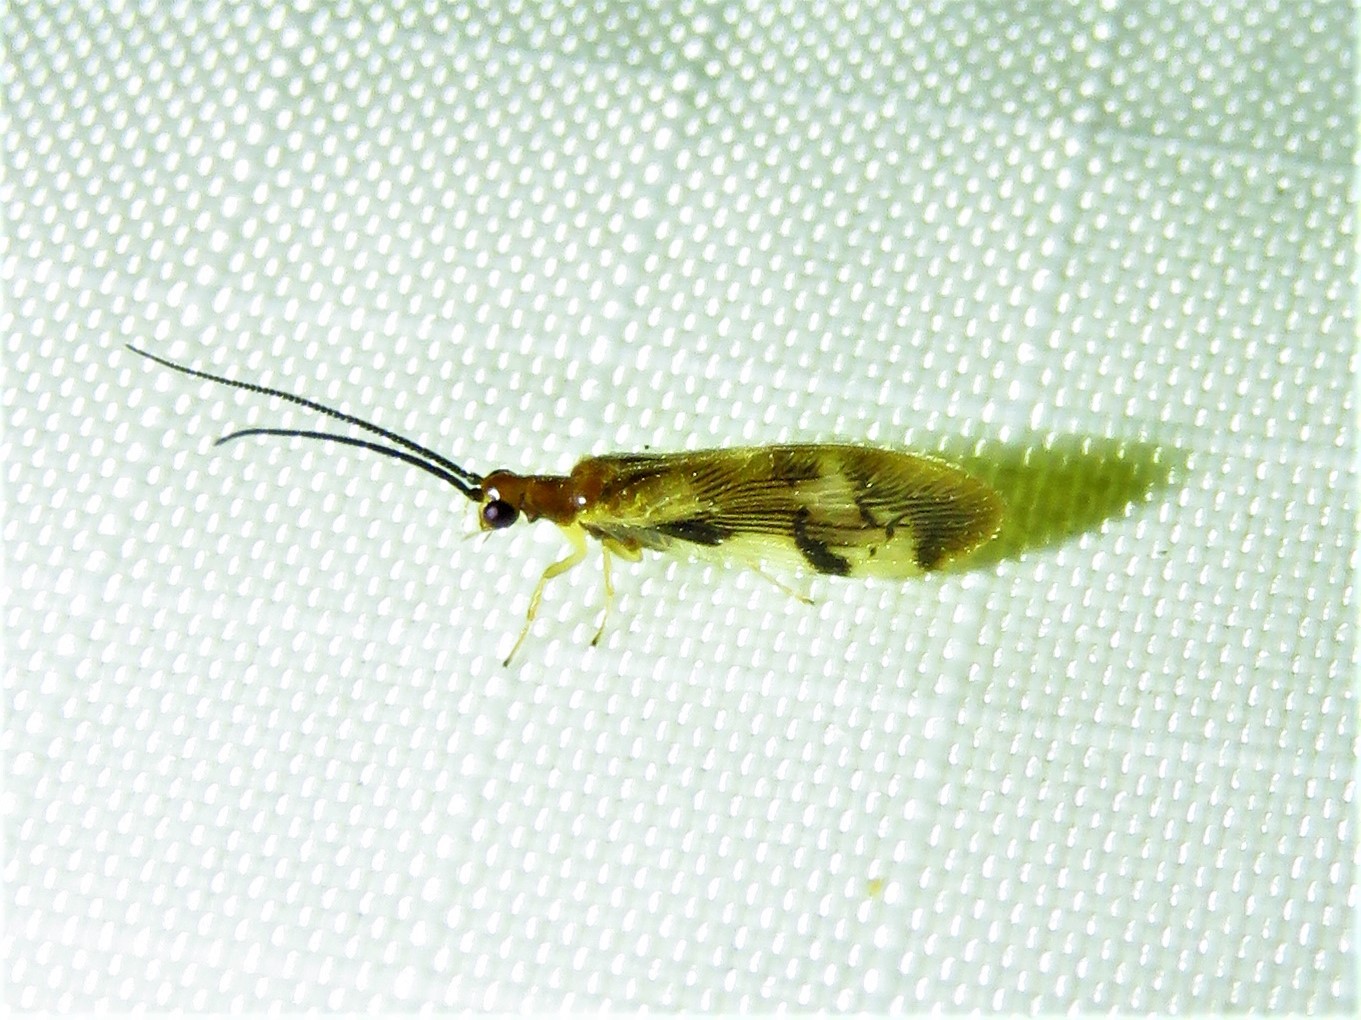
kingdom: Animalia
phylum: Arthropoda
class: Insecta
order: Neuroptera
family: Sisyridae
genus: Climacia
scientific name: Climacia areolaris
